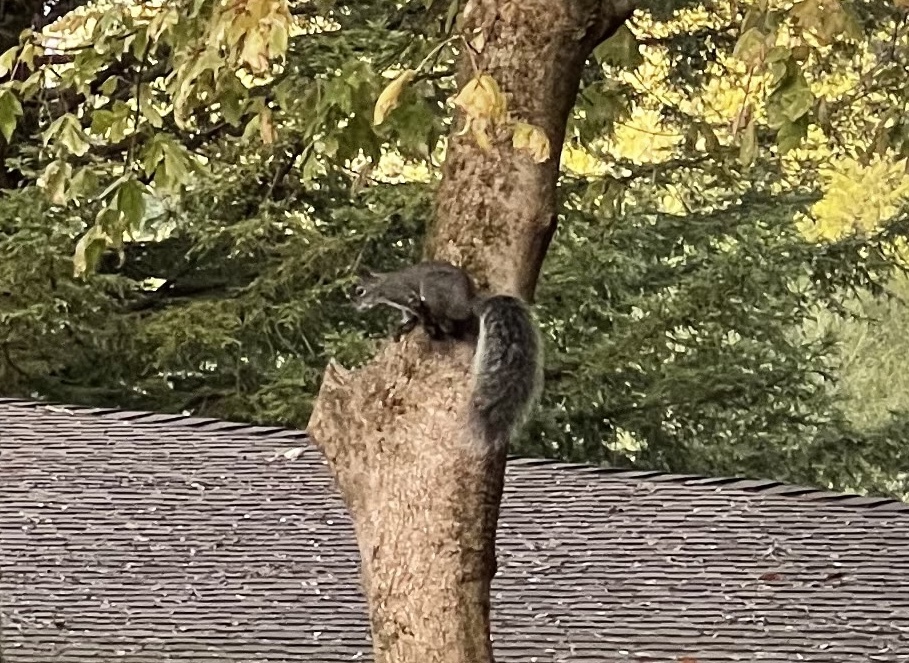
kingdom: Animalia
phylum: Chordata
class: Mammalia
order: Rodentia
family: Sciuridae
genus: Sciurus
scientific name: Sciurus griseus
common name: Western gray squirrel
